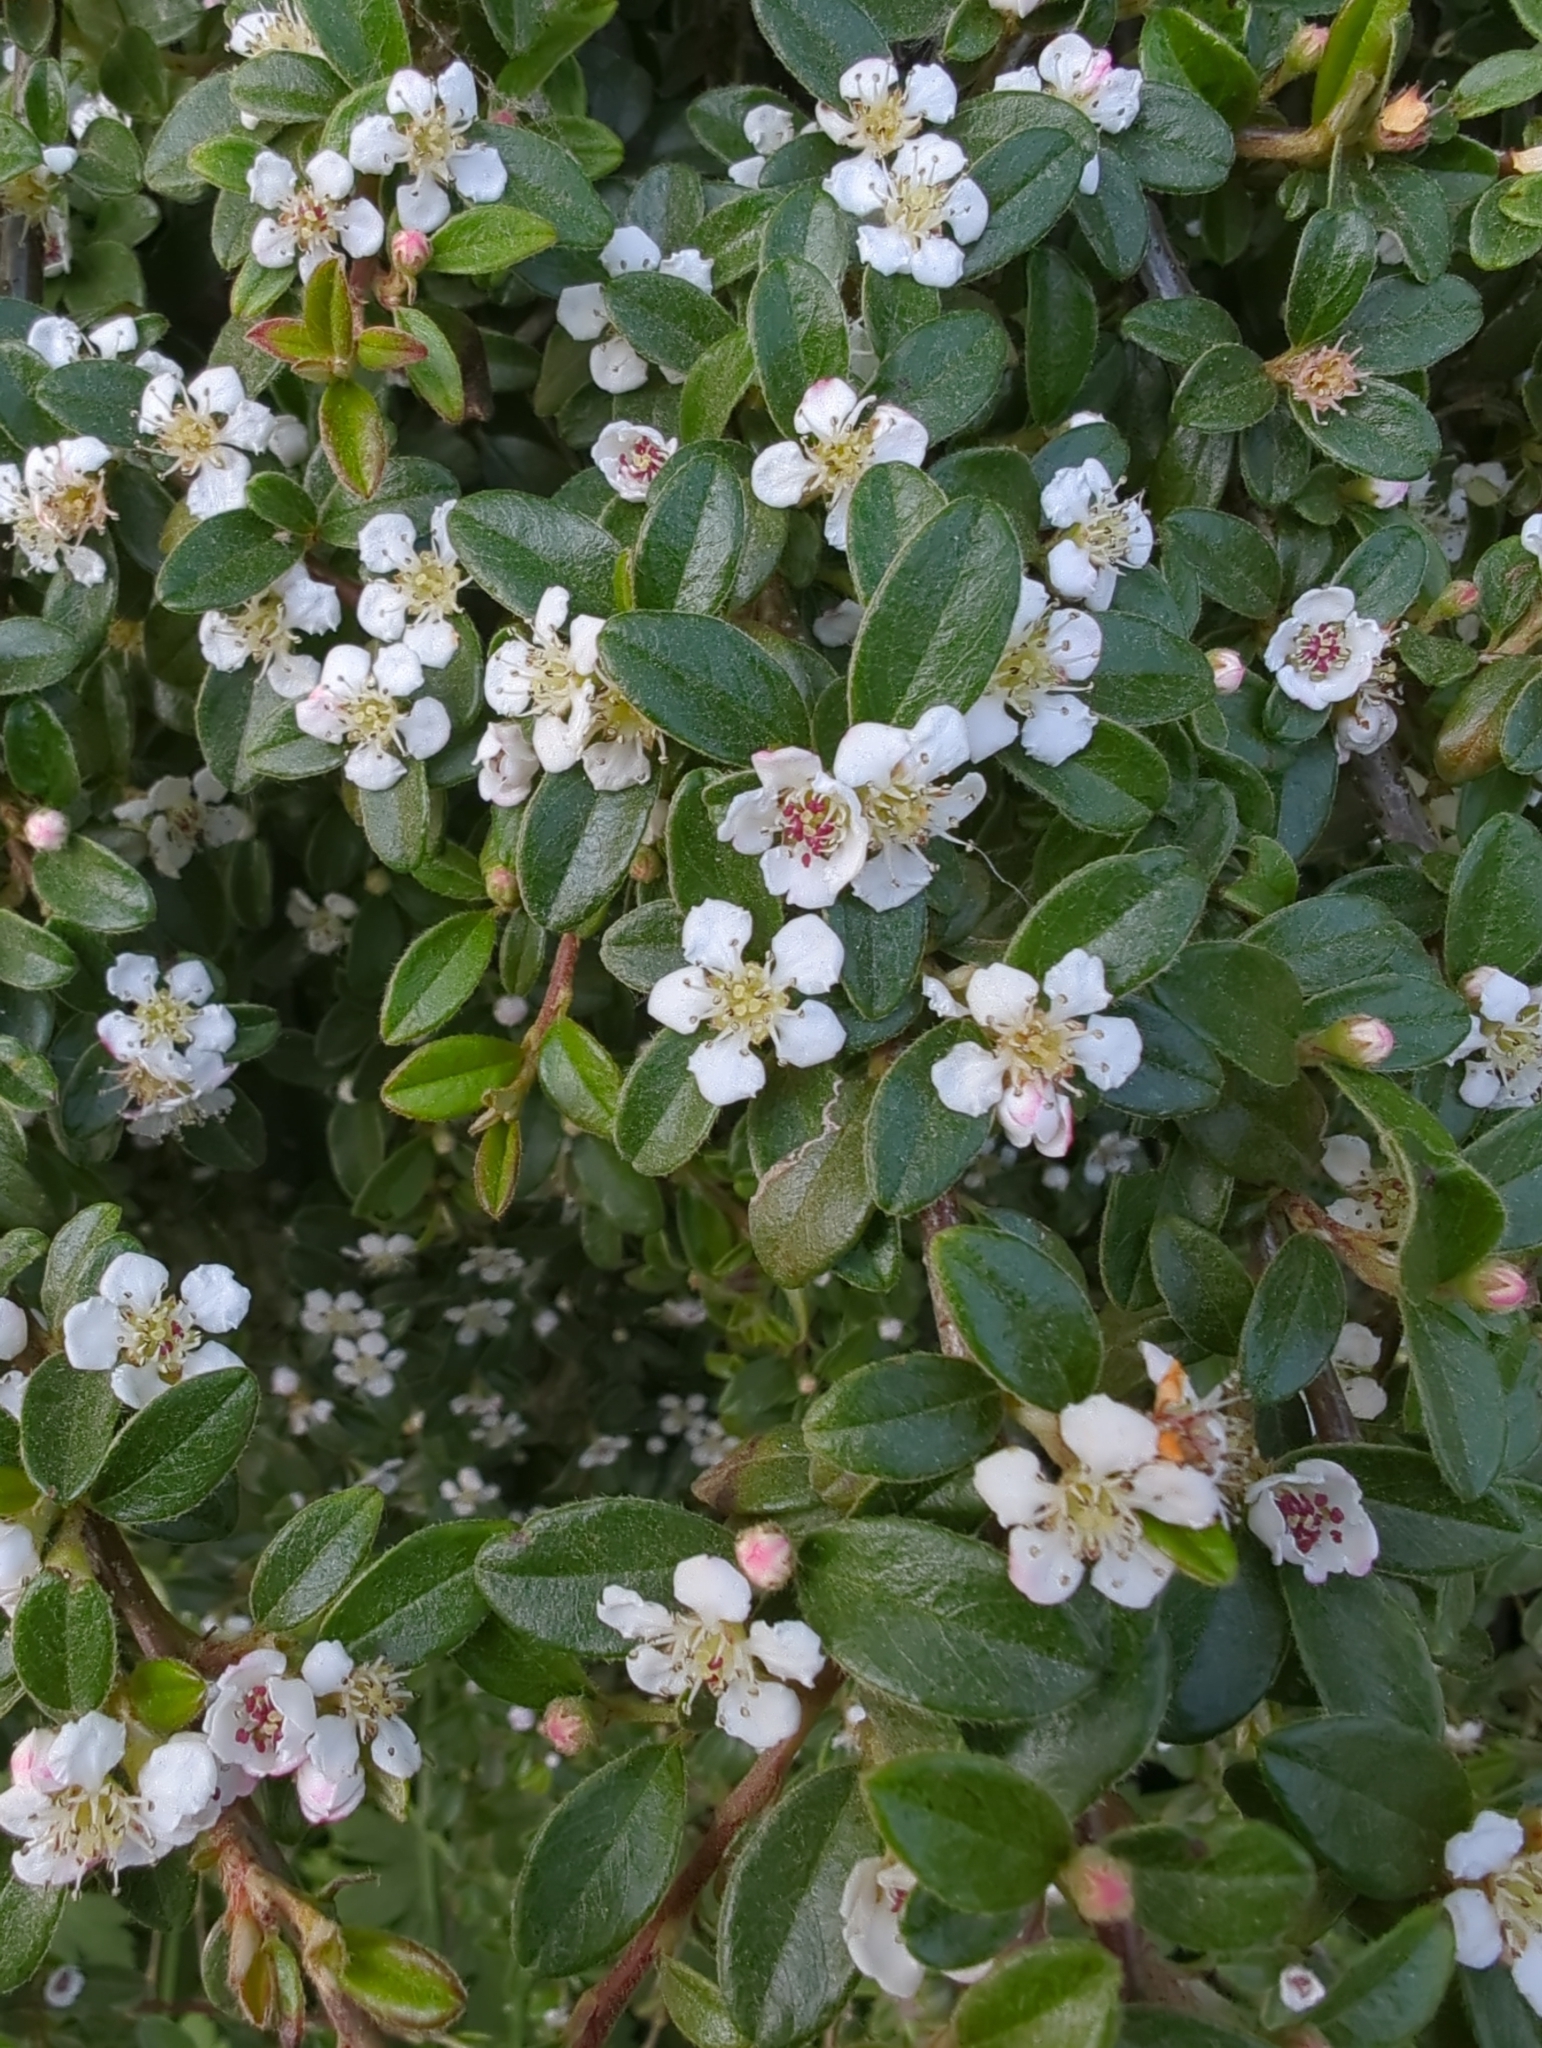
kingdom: Plantae
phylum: Tracheophyta
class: Magnoliopsida
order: Rosales
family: Rosaceae
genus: Cotoneaster
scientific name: Cotoneaster suecicus
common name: Swedish cotoneaster
